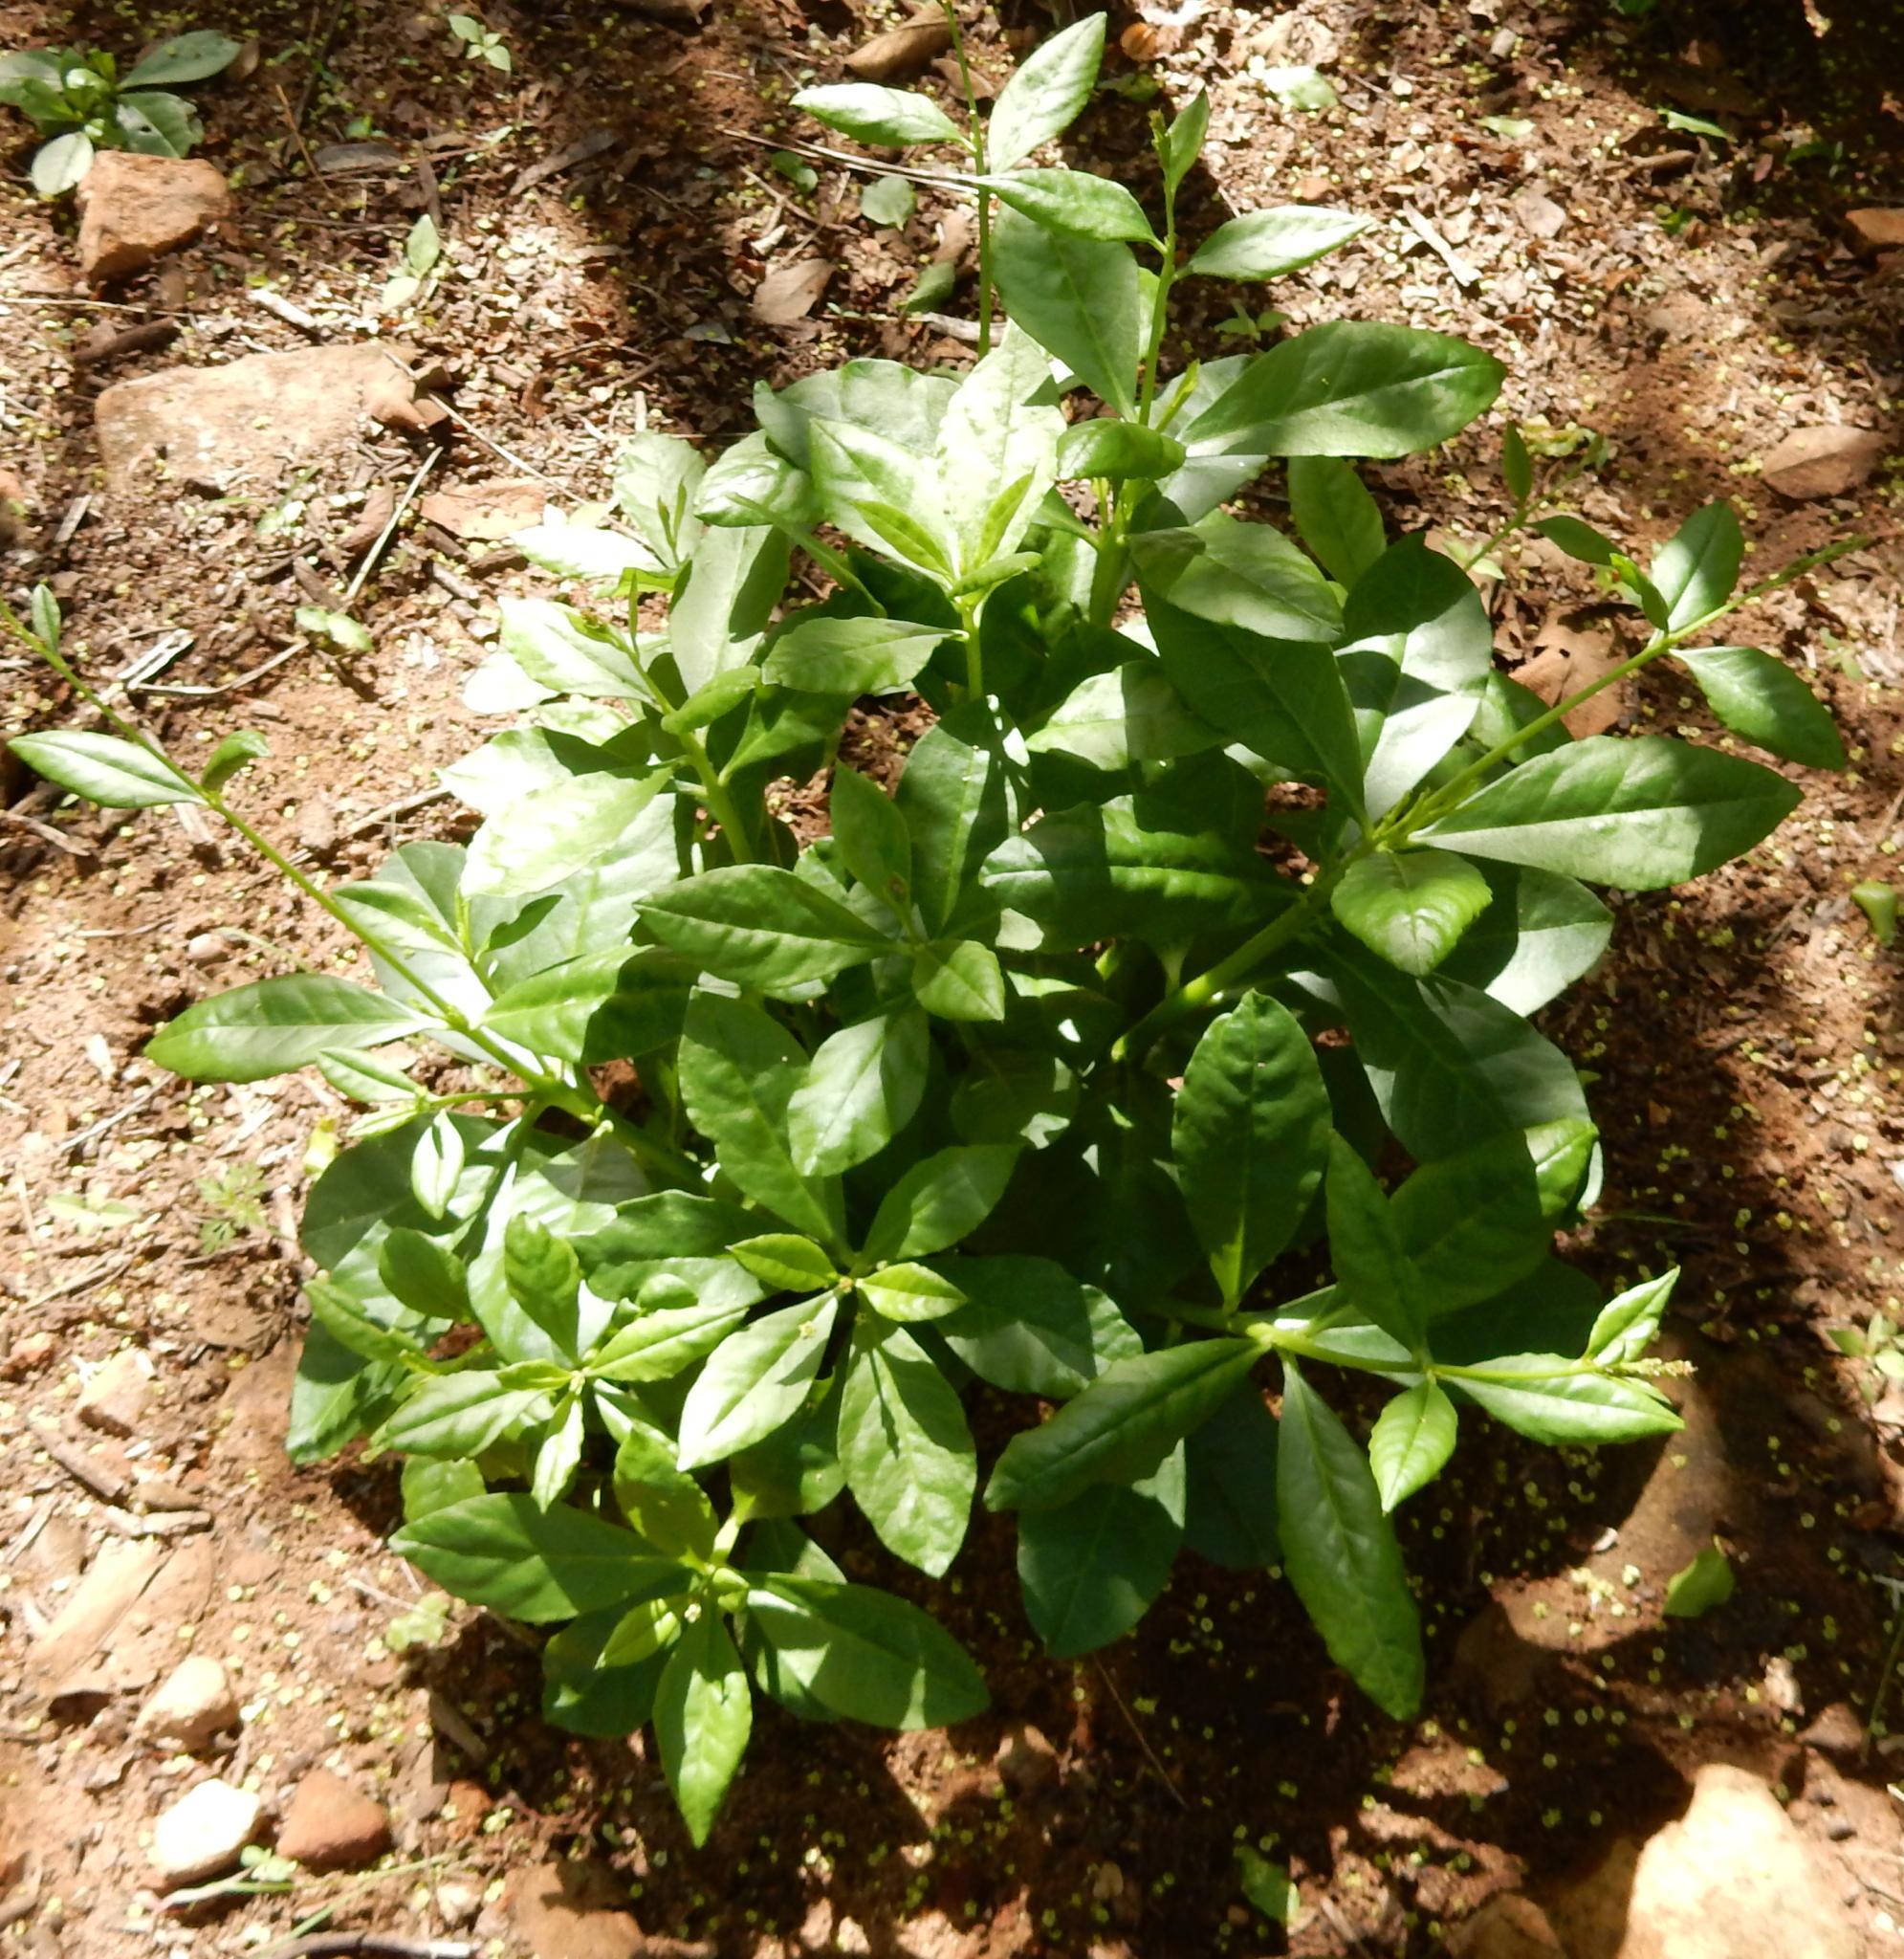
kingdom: Plantae
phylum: Tracheophyta
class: Magnoliopsida
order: Caryophyllales
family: Talinaceae
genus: Talinum
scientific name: Talinum paniculatum
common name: Jewels of opar
